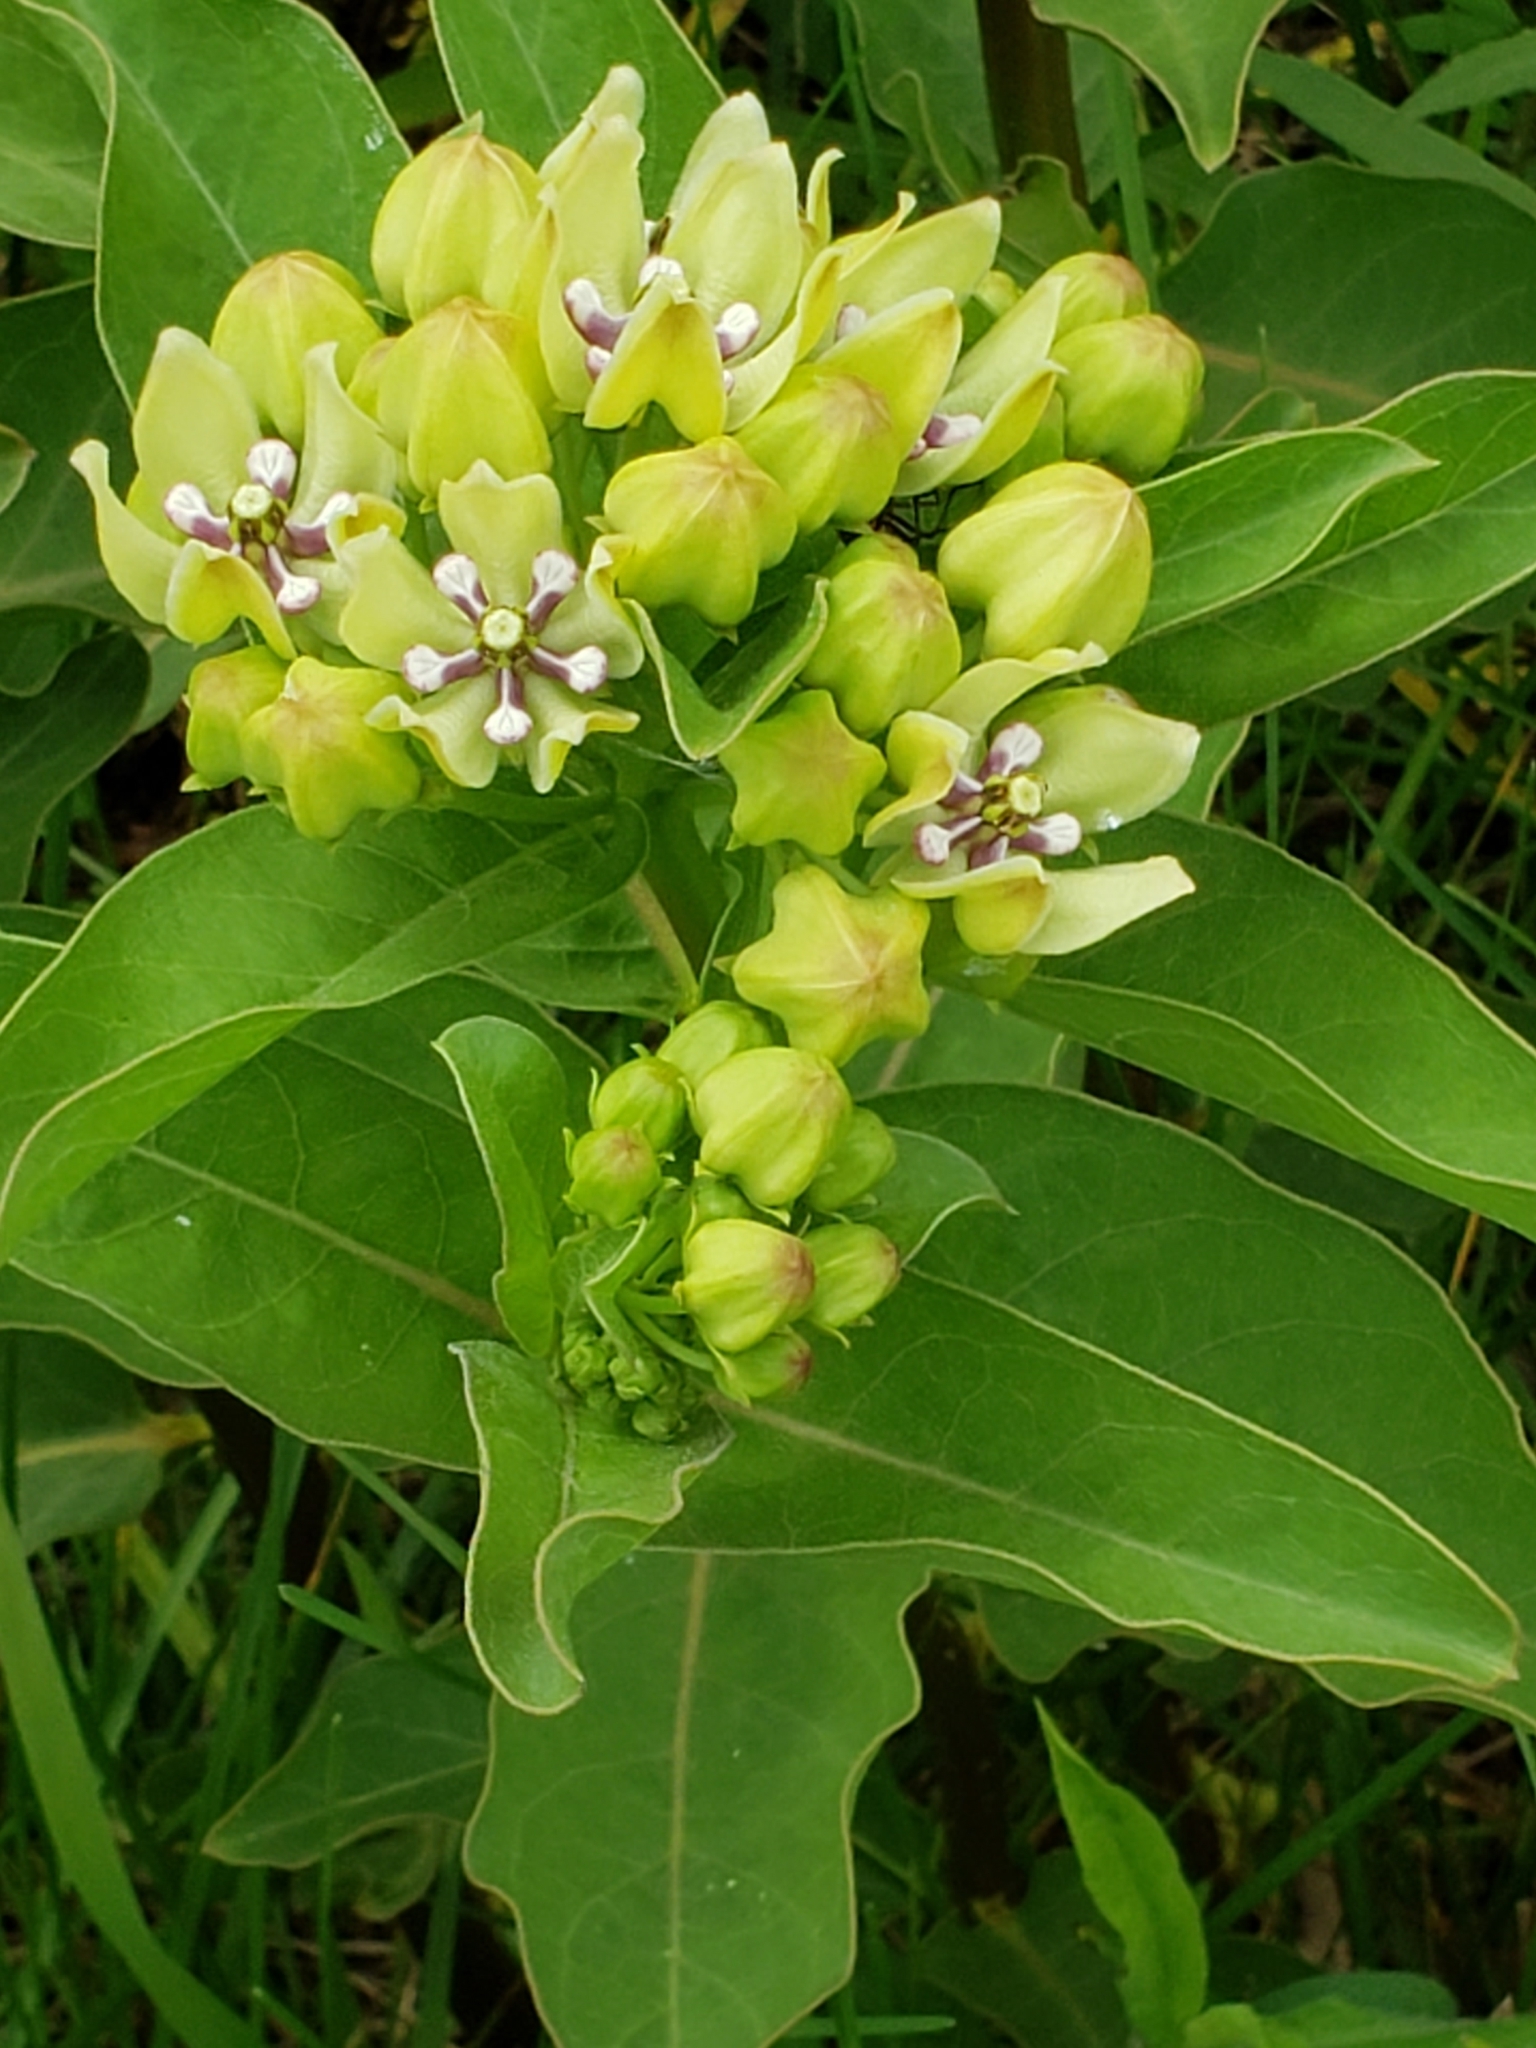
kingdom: Plantae
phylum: Tracheophyta
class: Magnoliopsida
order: Gentianales
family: Apocynaceae
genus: Asclepias
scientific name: Asclepias viridis
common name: Antelope-horns
